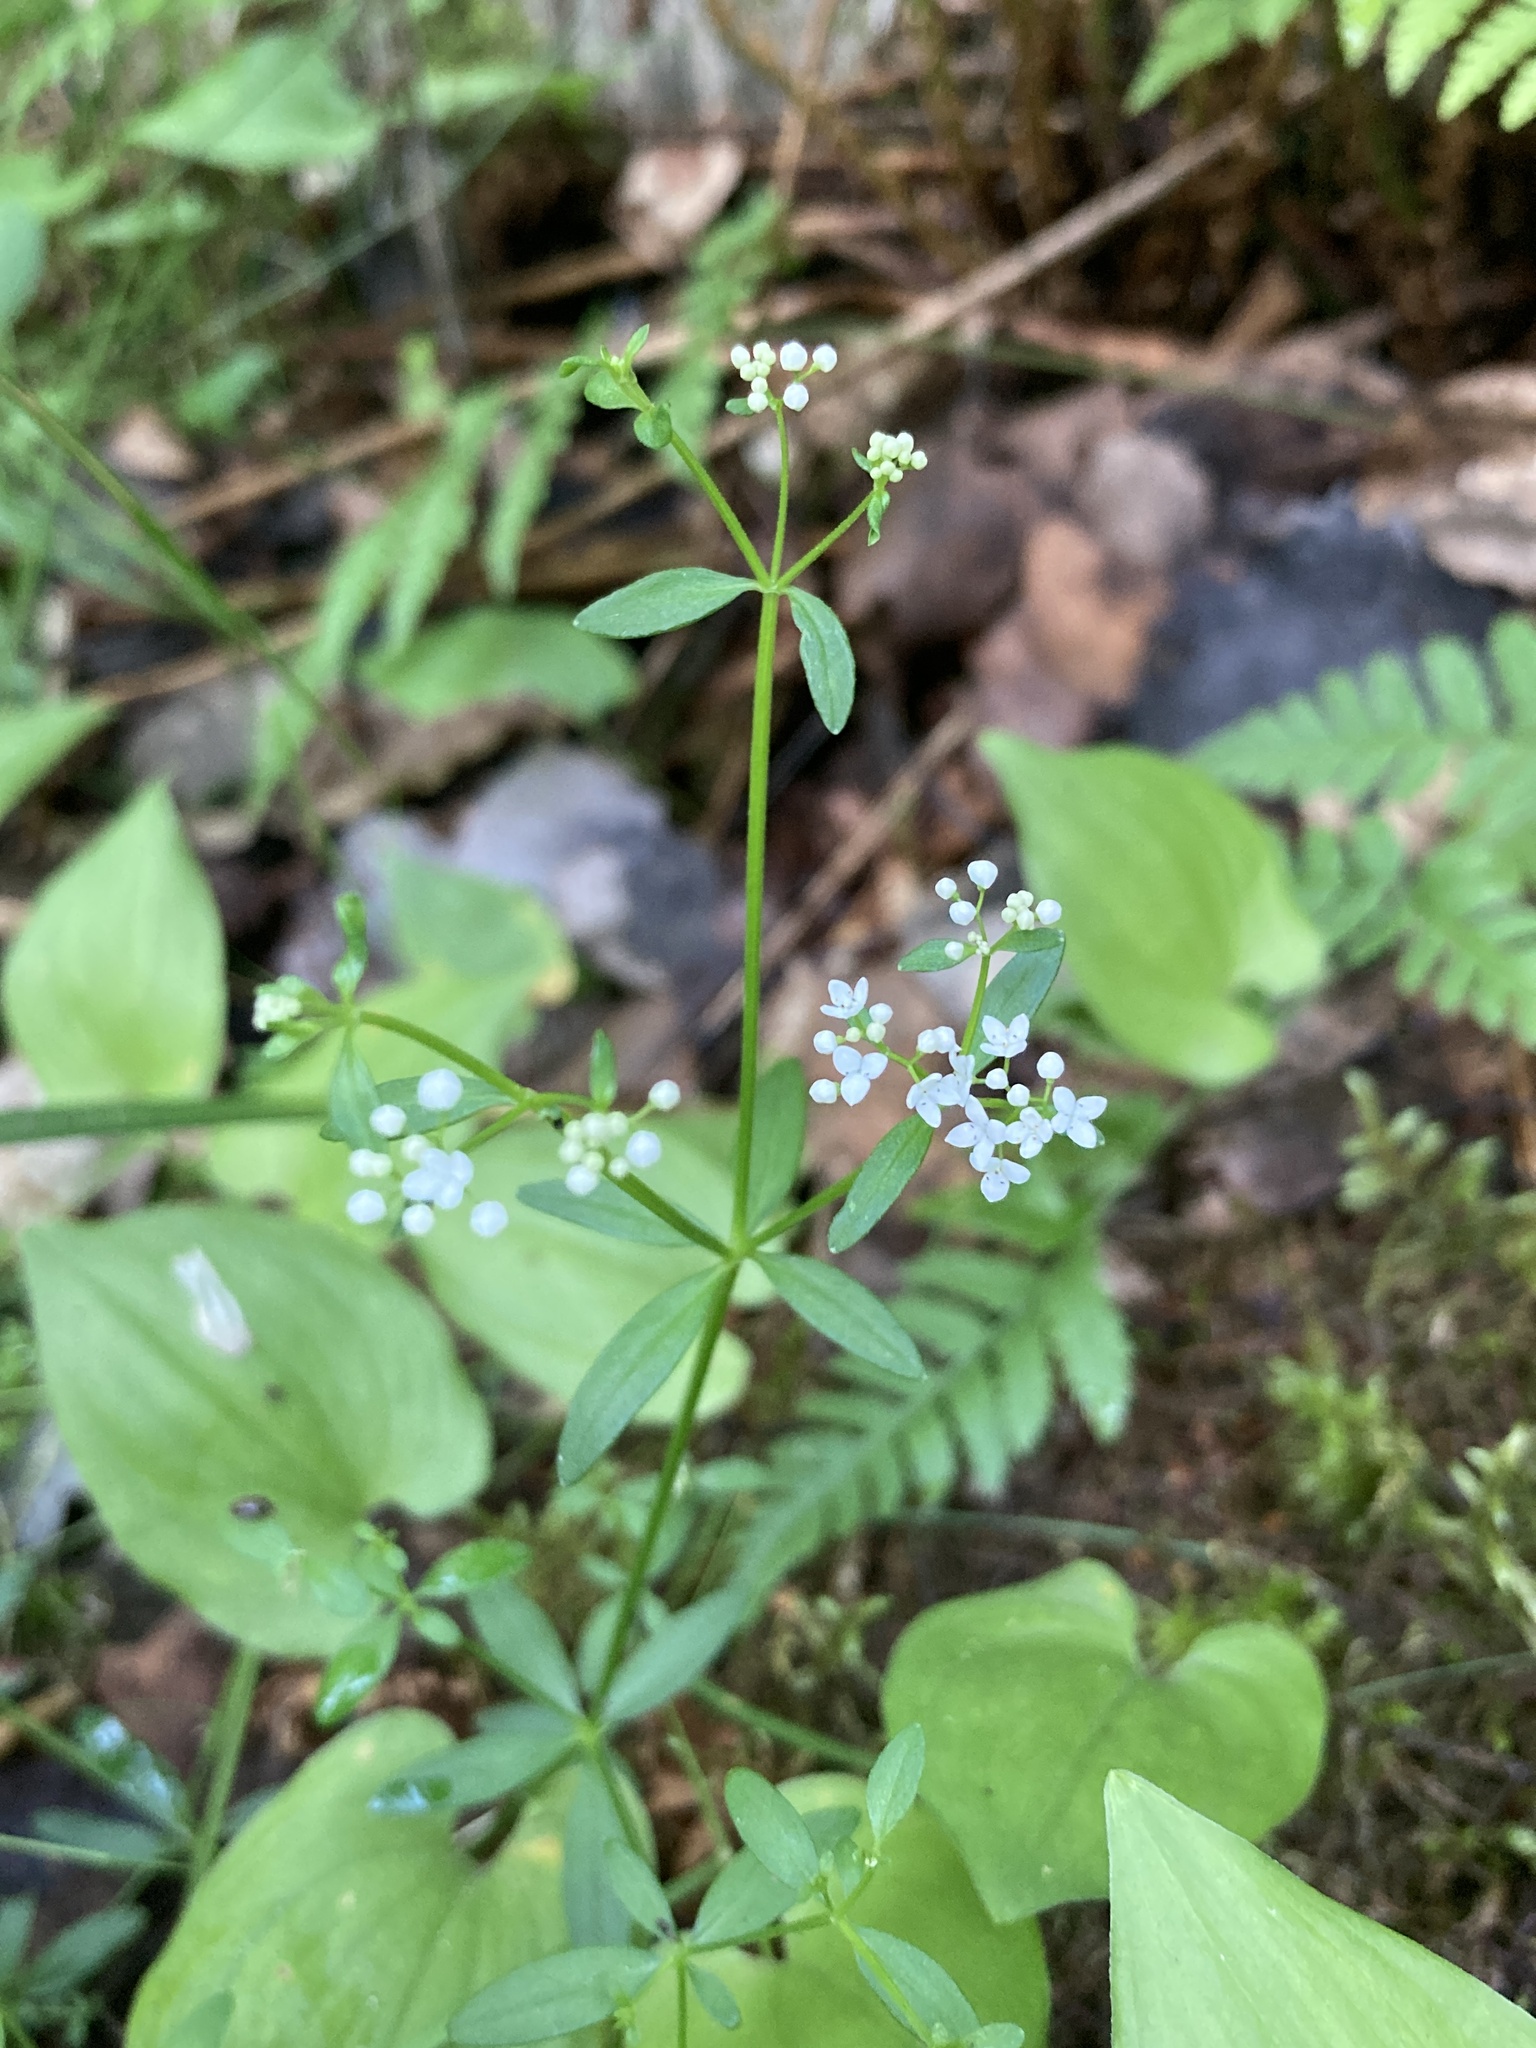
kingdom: Plantae
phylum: Tracheophyta
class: Magnoliopsida
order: Gentianales
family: Rubiaceae
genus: Galium
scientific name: Galium palustre
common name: Common marsh-bedstraw
